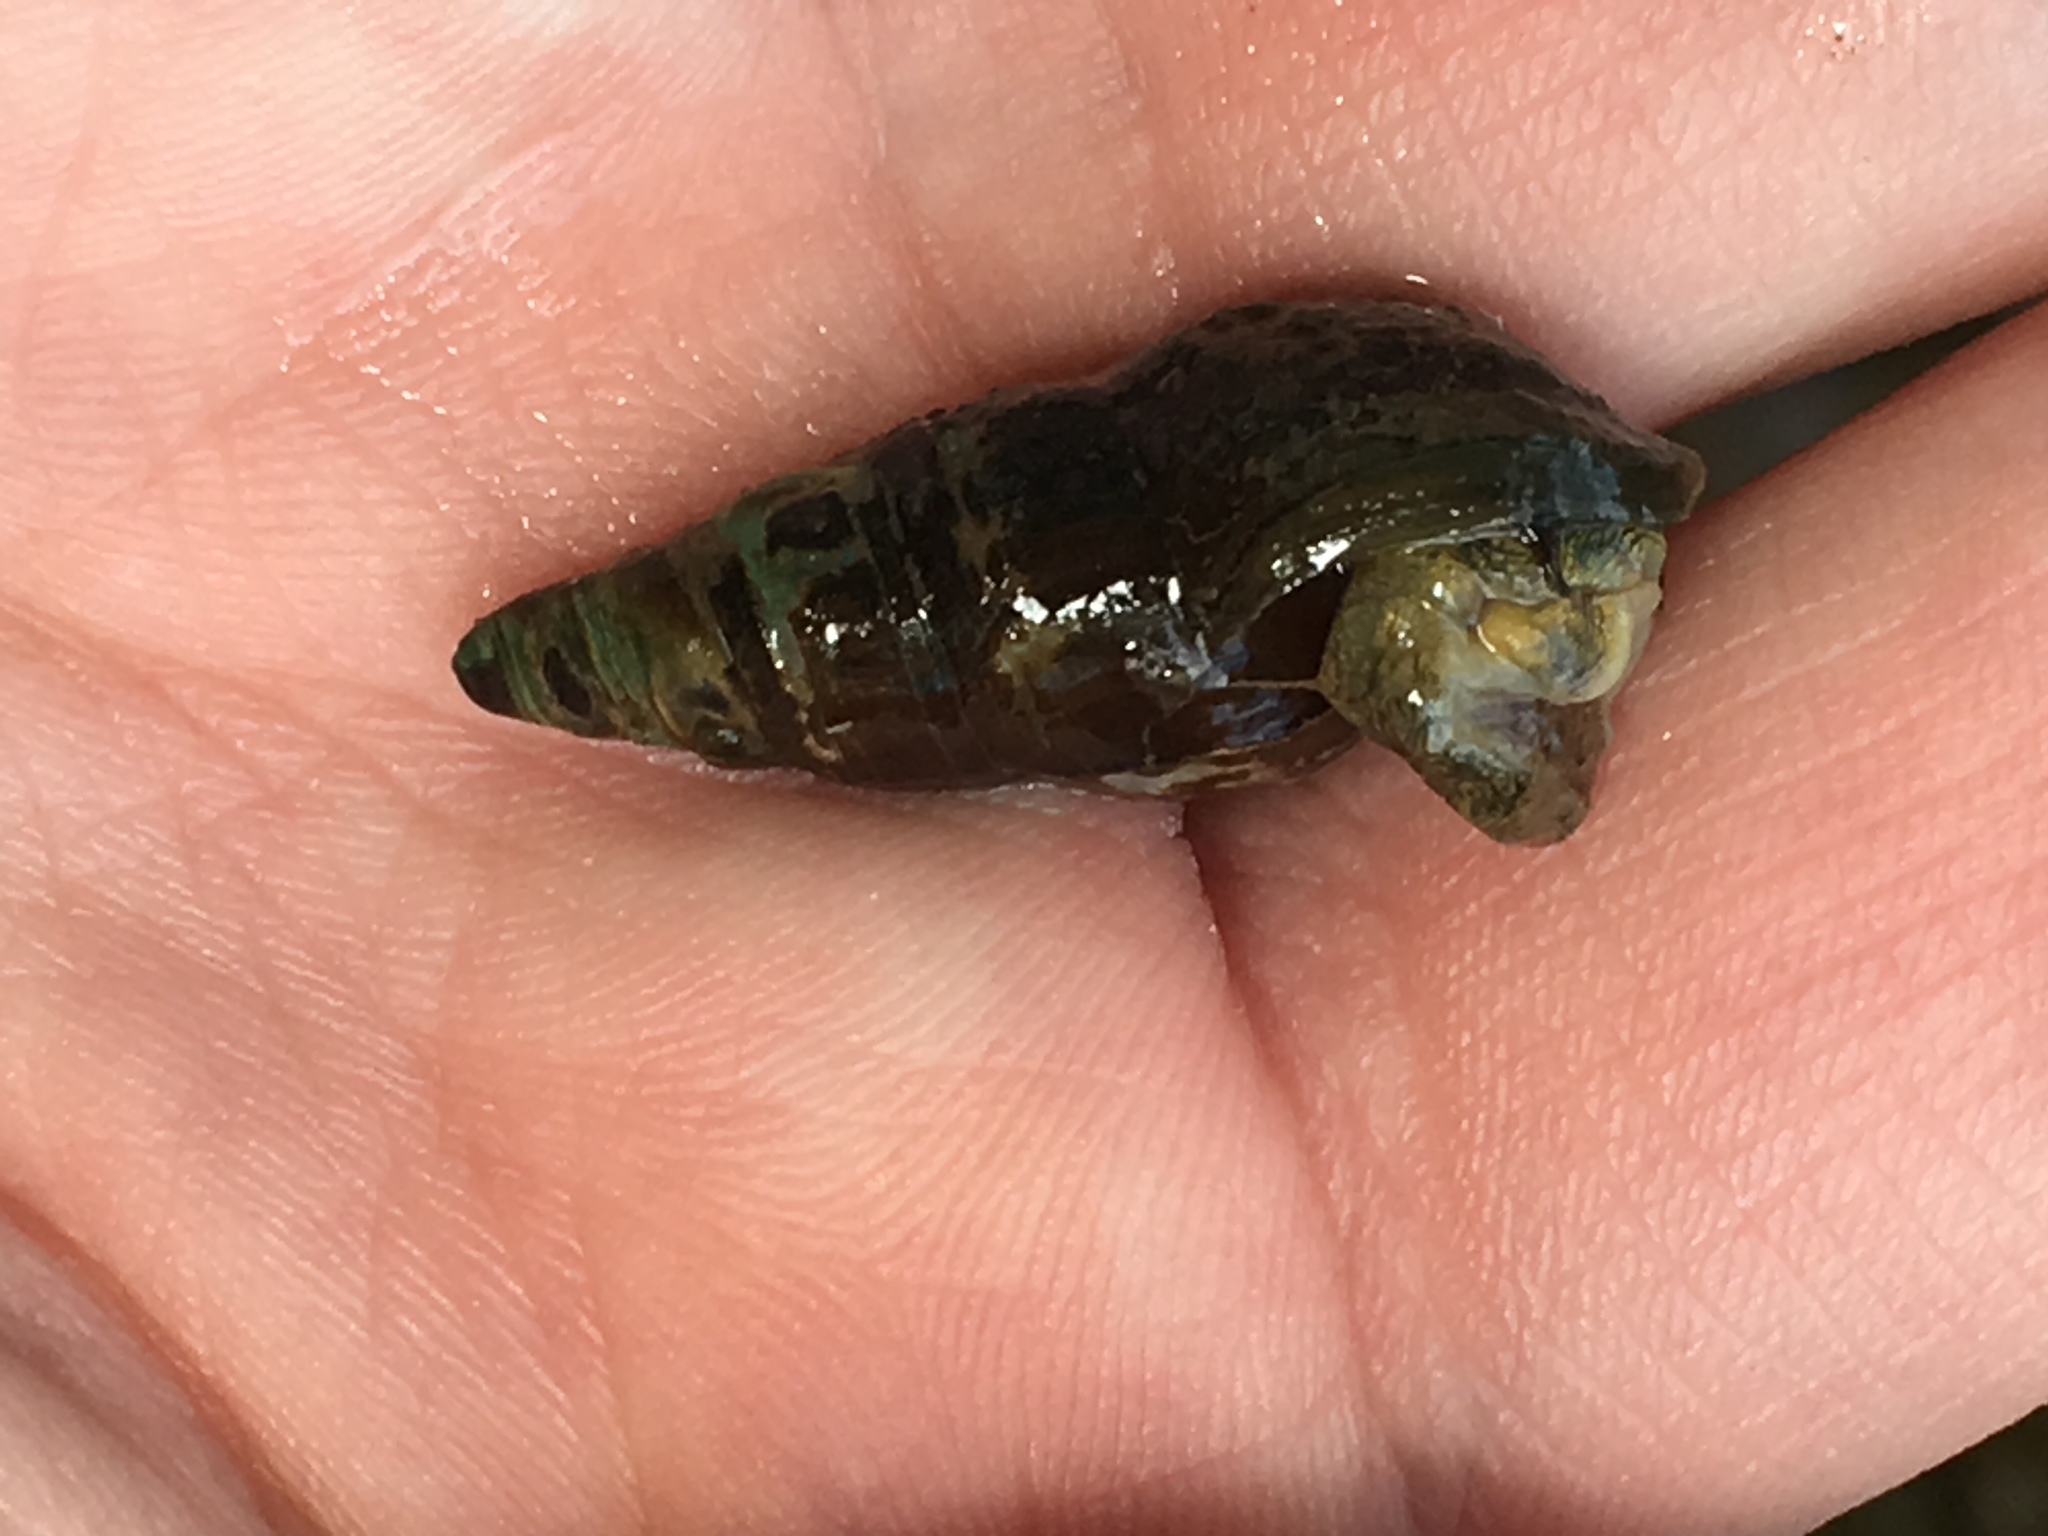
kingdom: Animalia
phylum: Mollusca
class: Gastropoda
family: Pleuroceridae
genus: Elimia
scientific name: Elimia virginica
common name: Piedmont elimia
